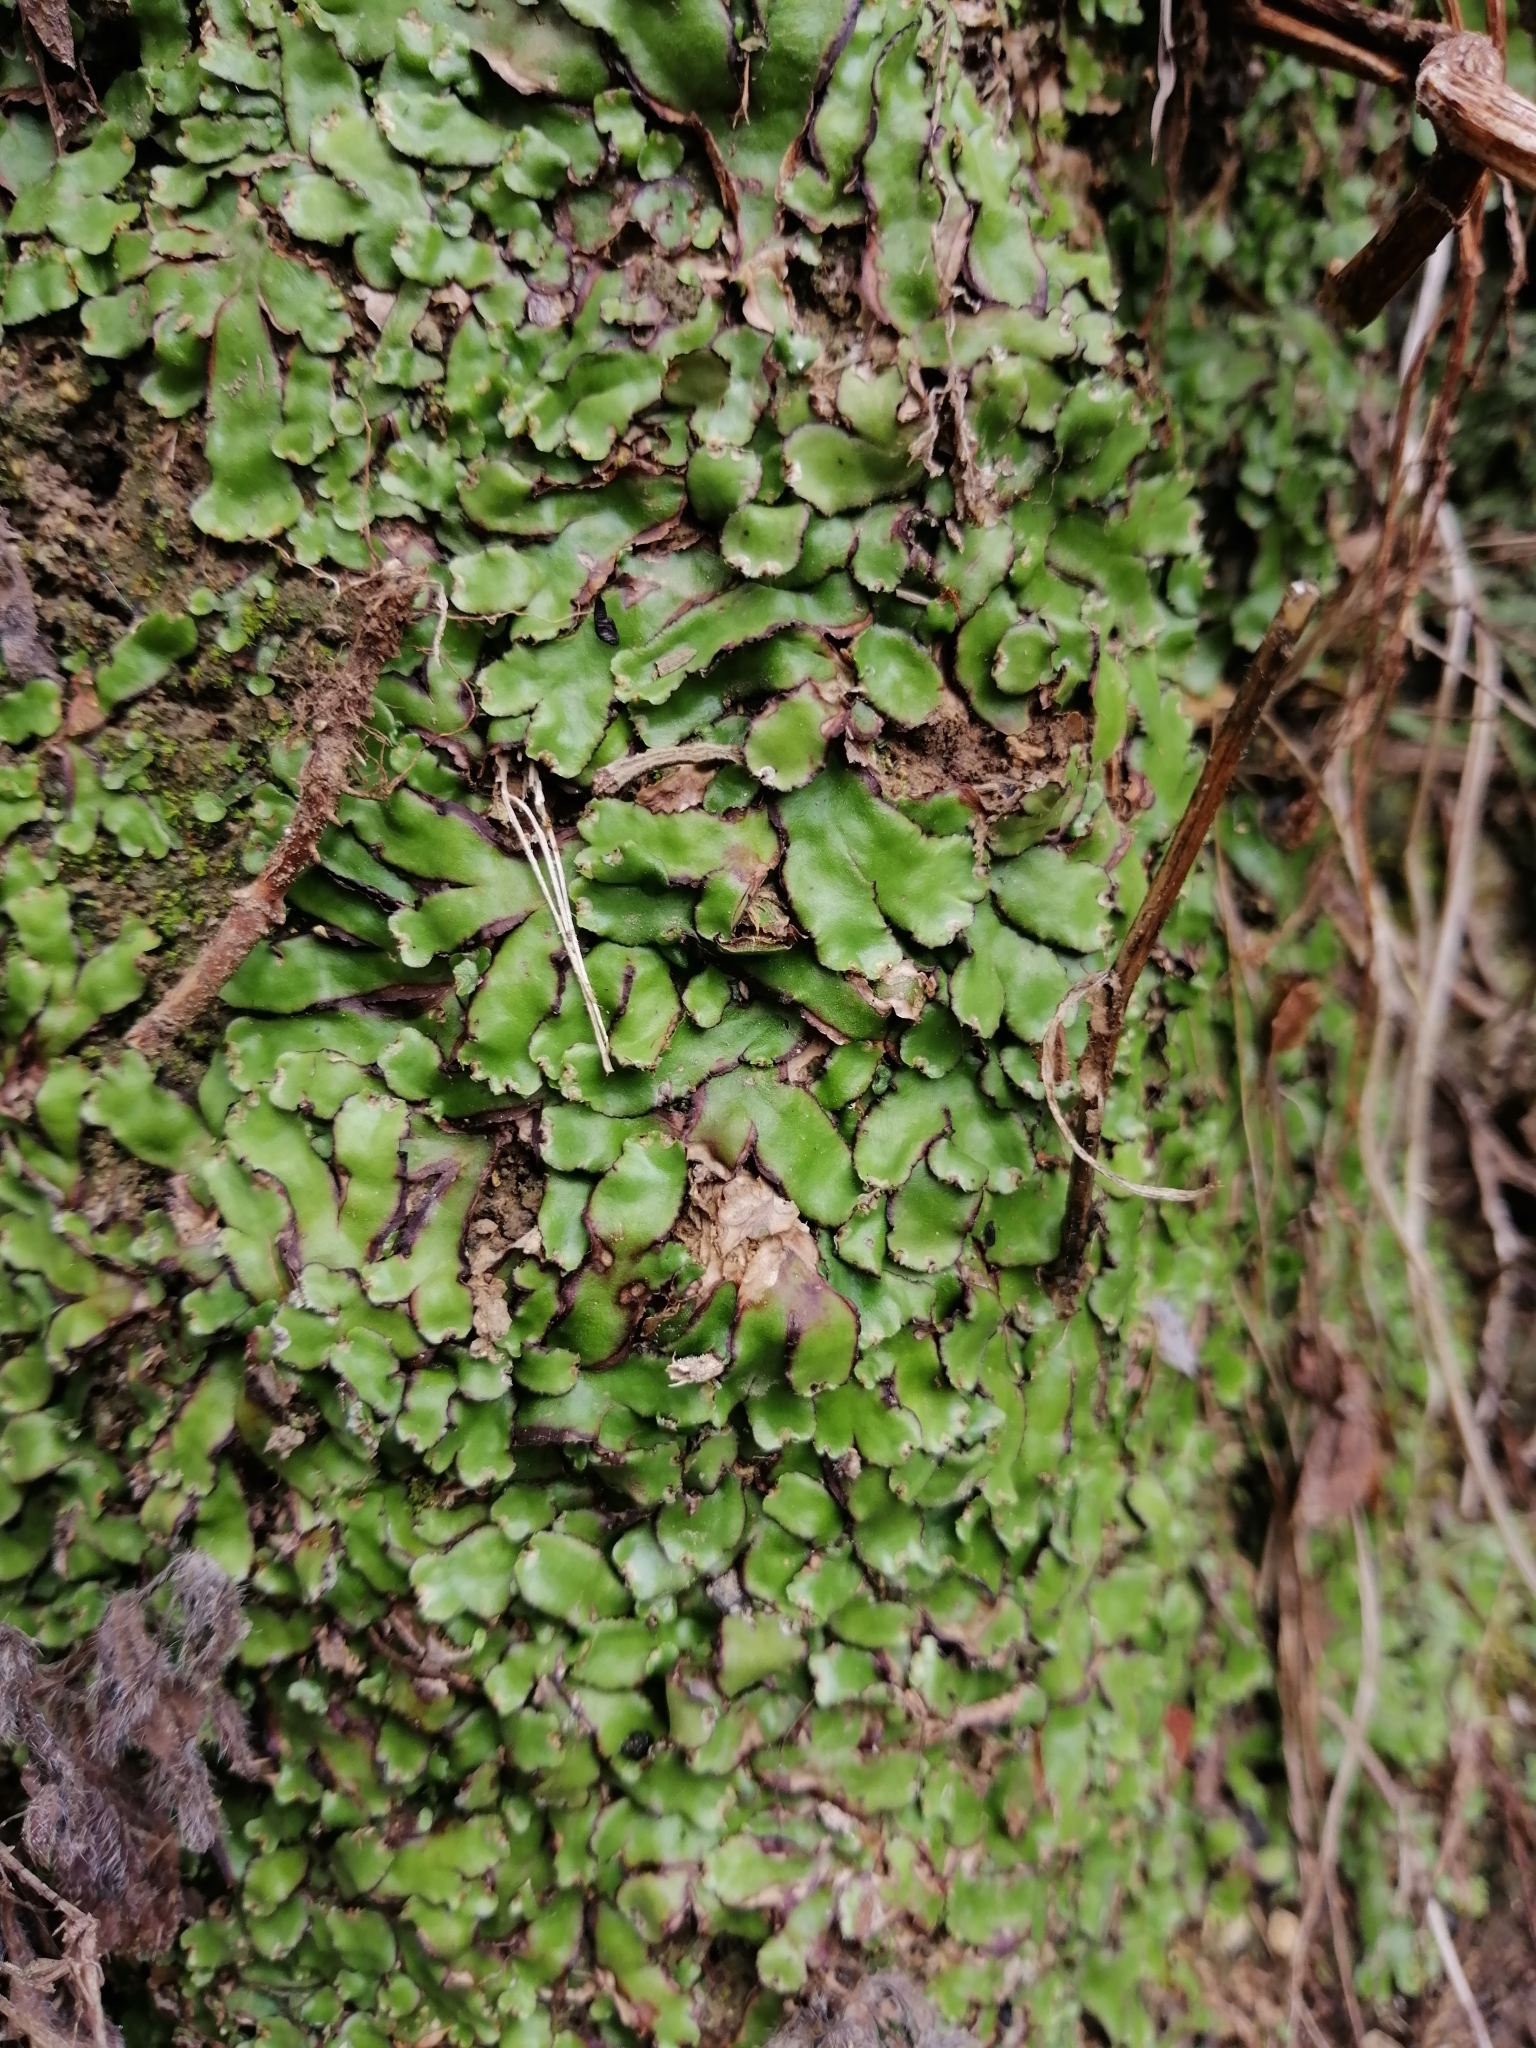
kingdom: Plantae
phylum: Marchantiophyta
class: Marchantiopsida
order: Marchantiales
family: Aytoniaceae
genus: Plagiochasma
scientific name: Plagiochasma crenulatum
